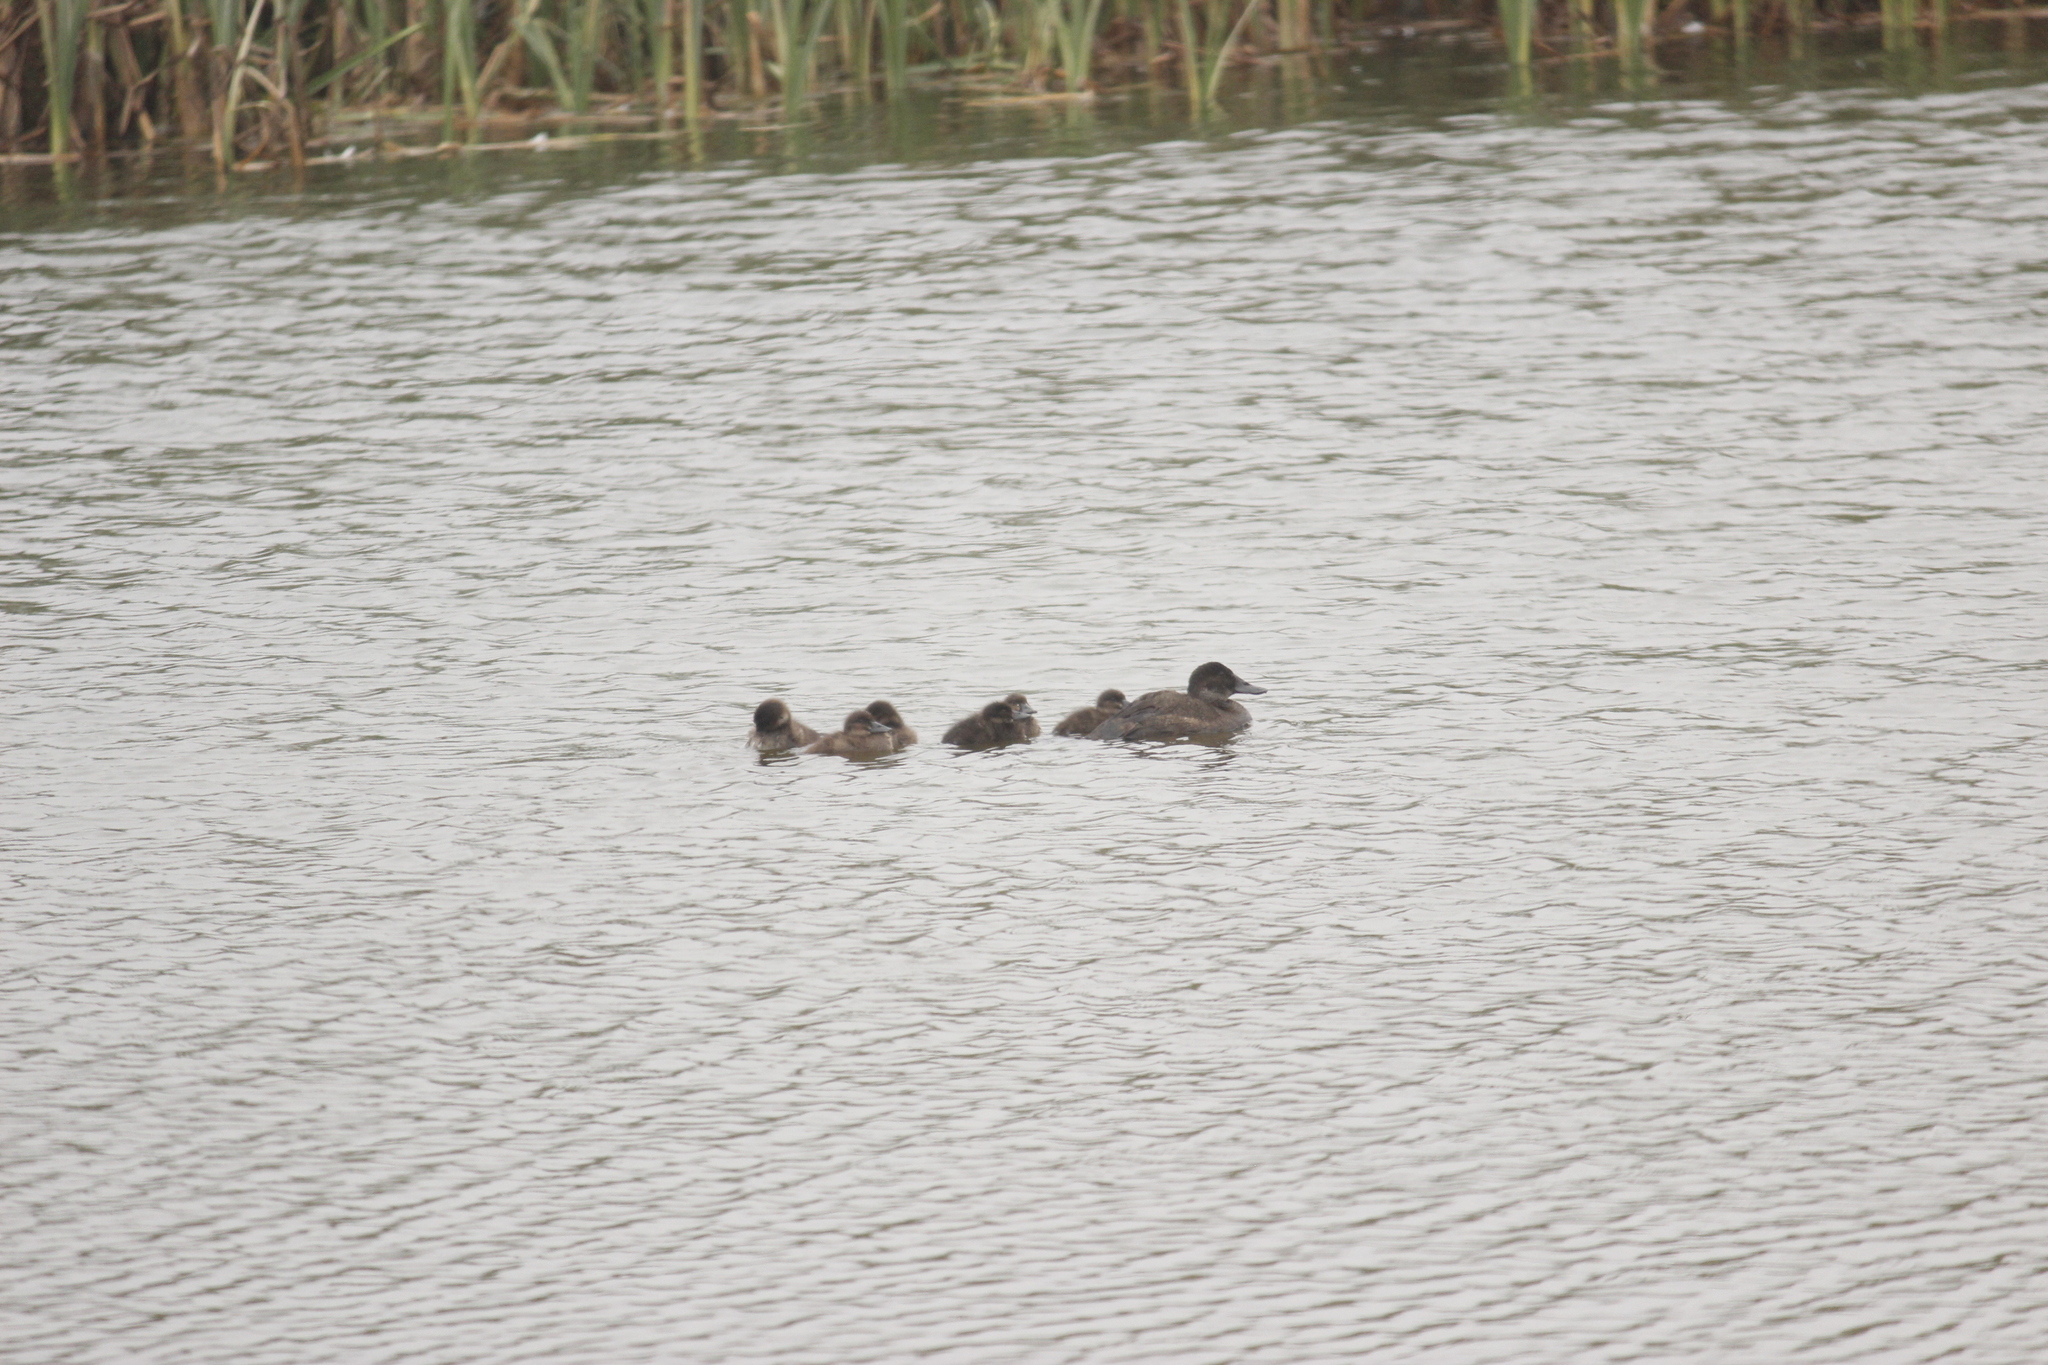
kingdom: Animalia
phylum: Chordata
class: Aves
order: Anseriformes
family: Anatidae
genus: Oxyura
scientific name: Oxyura ferruginea
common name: Andean duck
